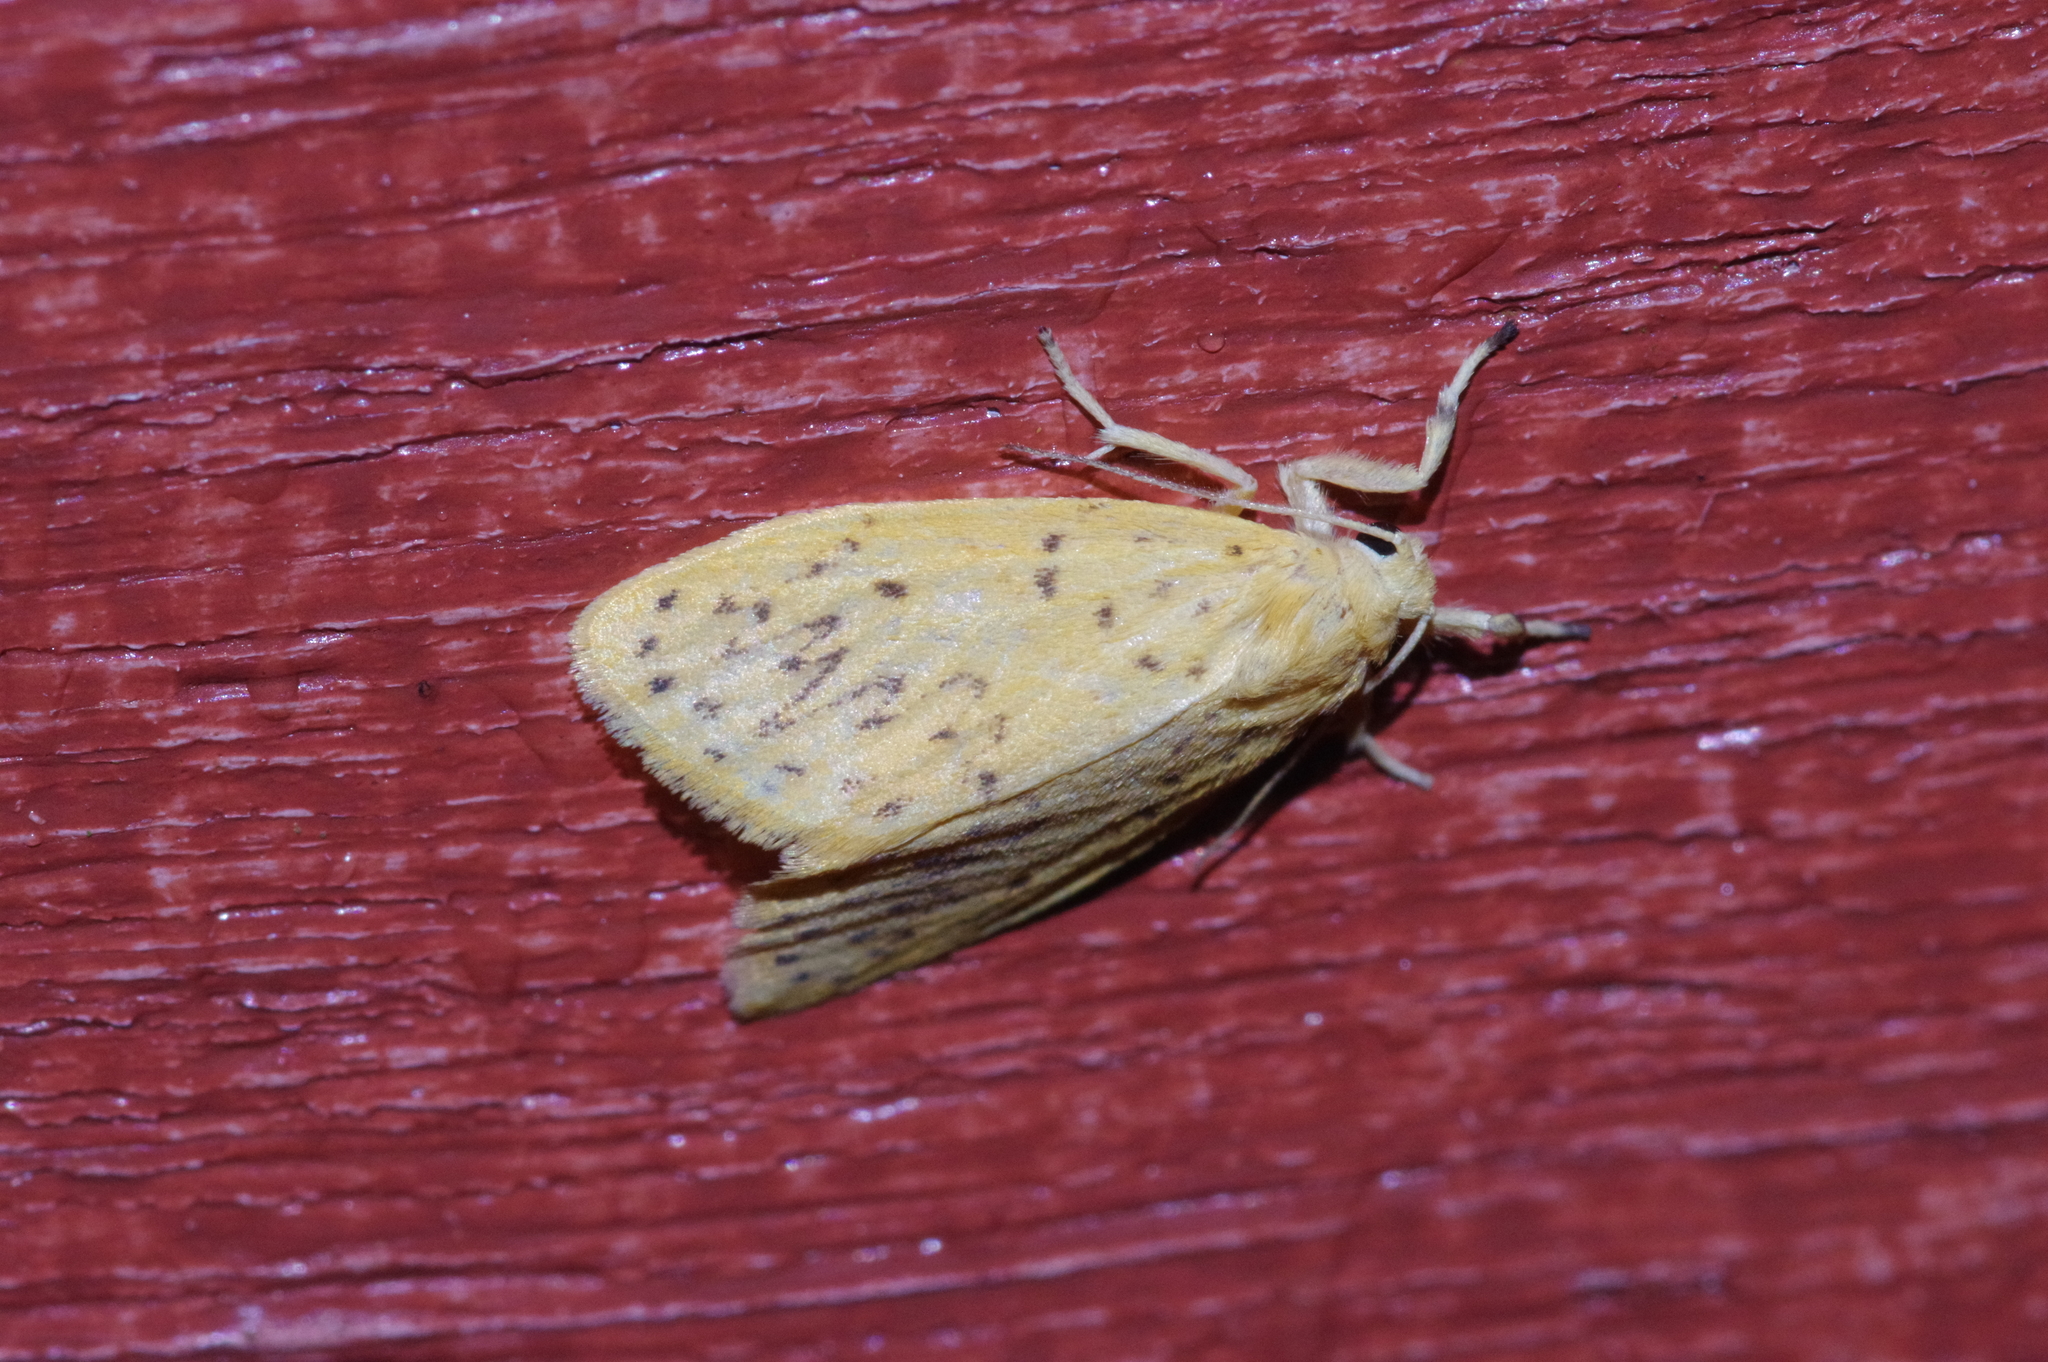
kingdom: Animalia
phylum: Arthropoda
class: Insecta
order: Lepidoptera
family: Erebidae
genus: Huangilene
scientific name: Huangilene alikangiae
